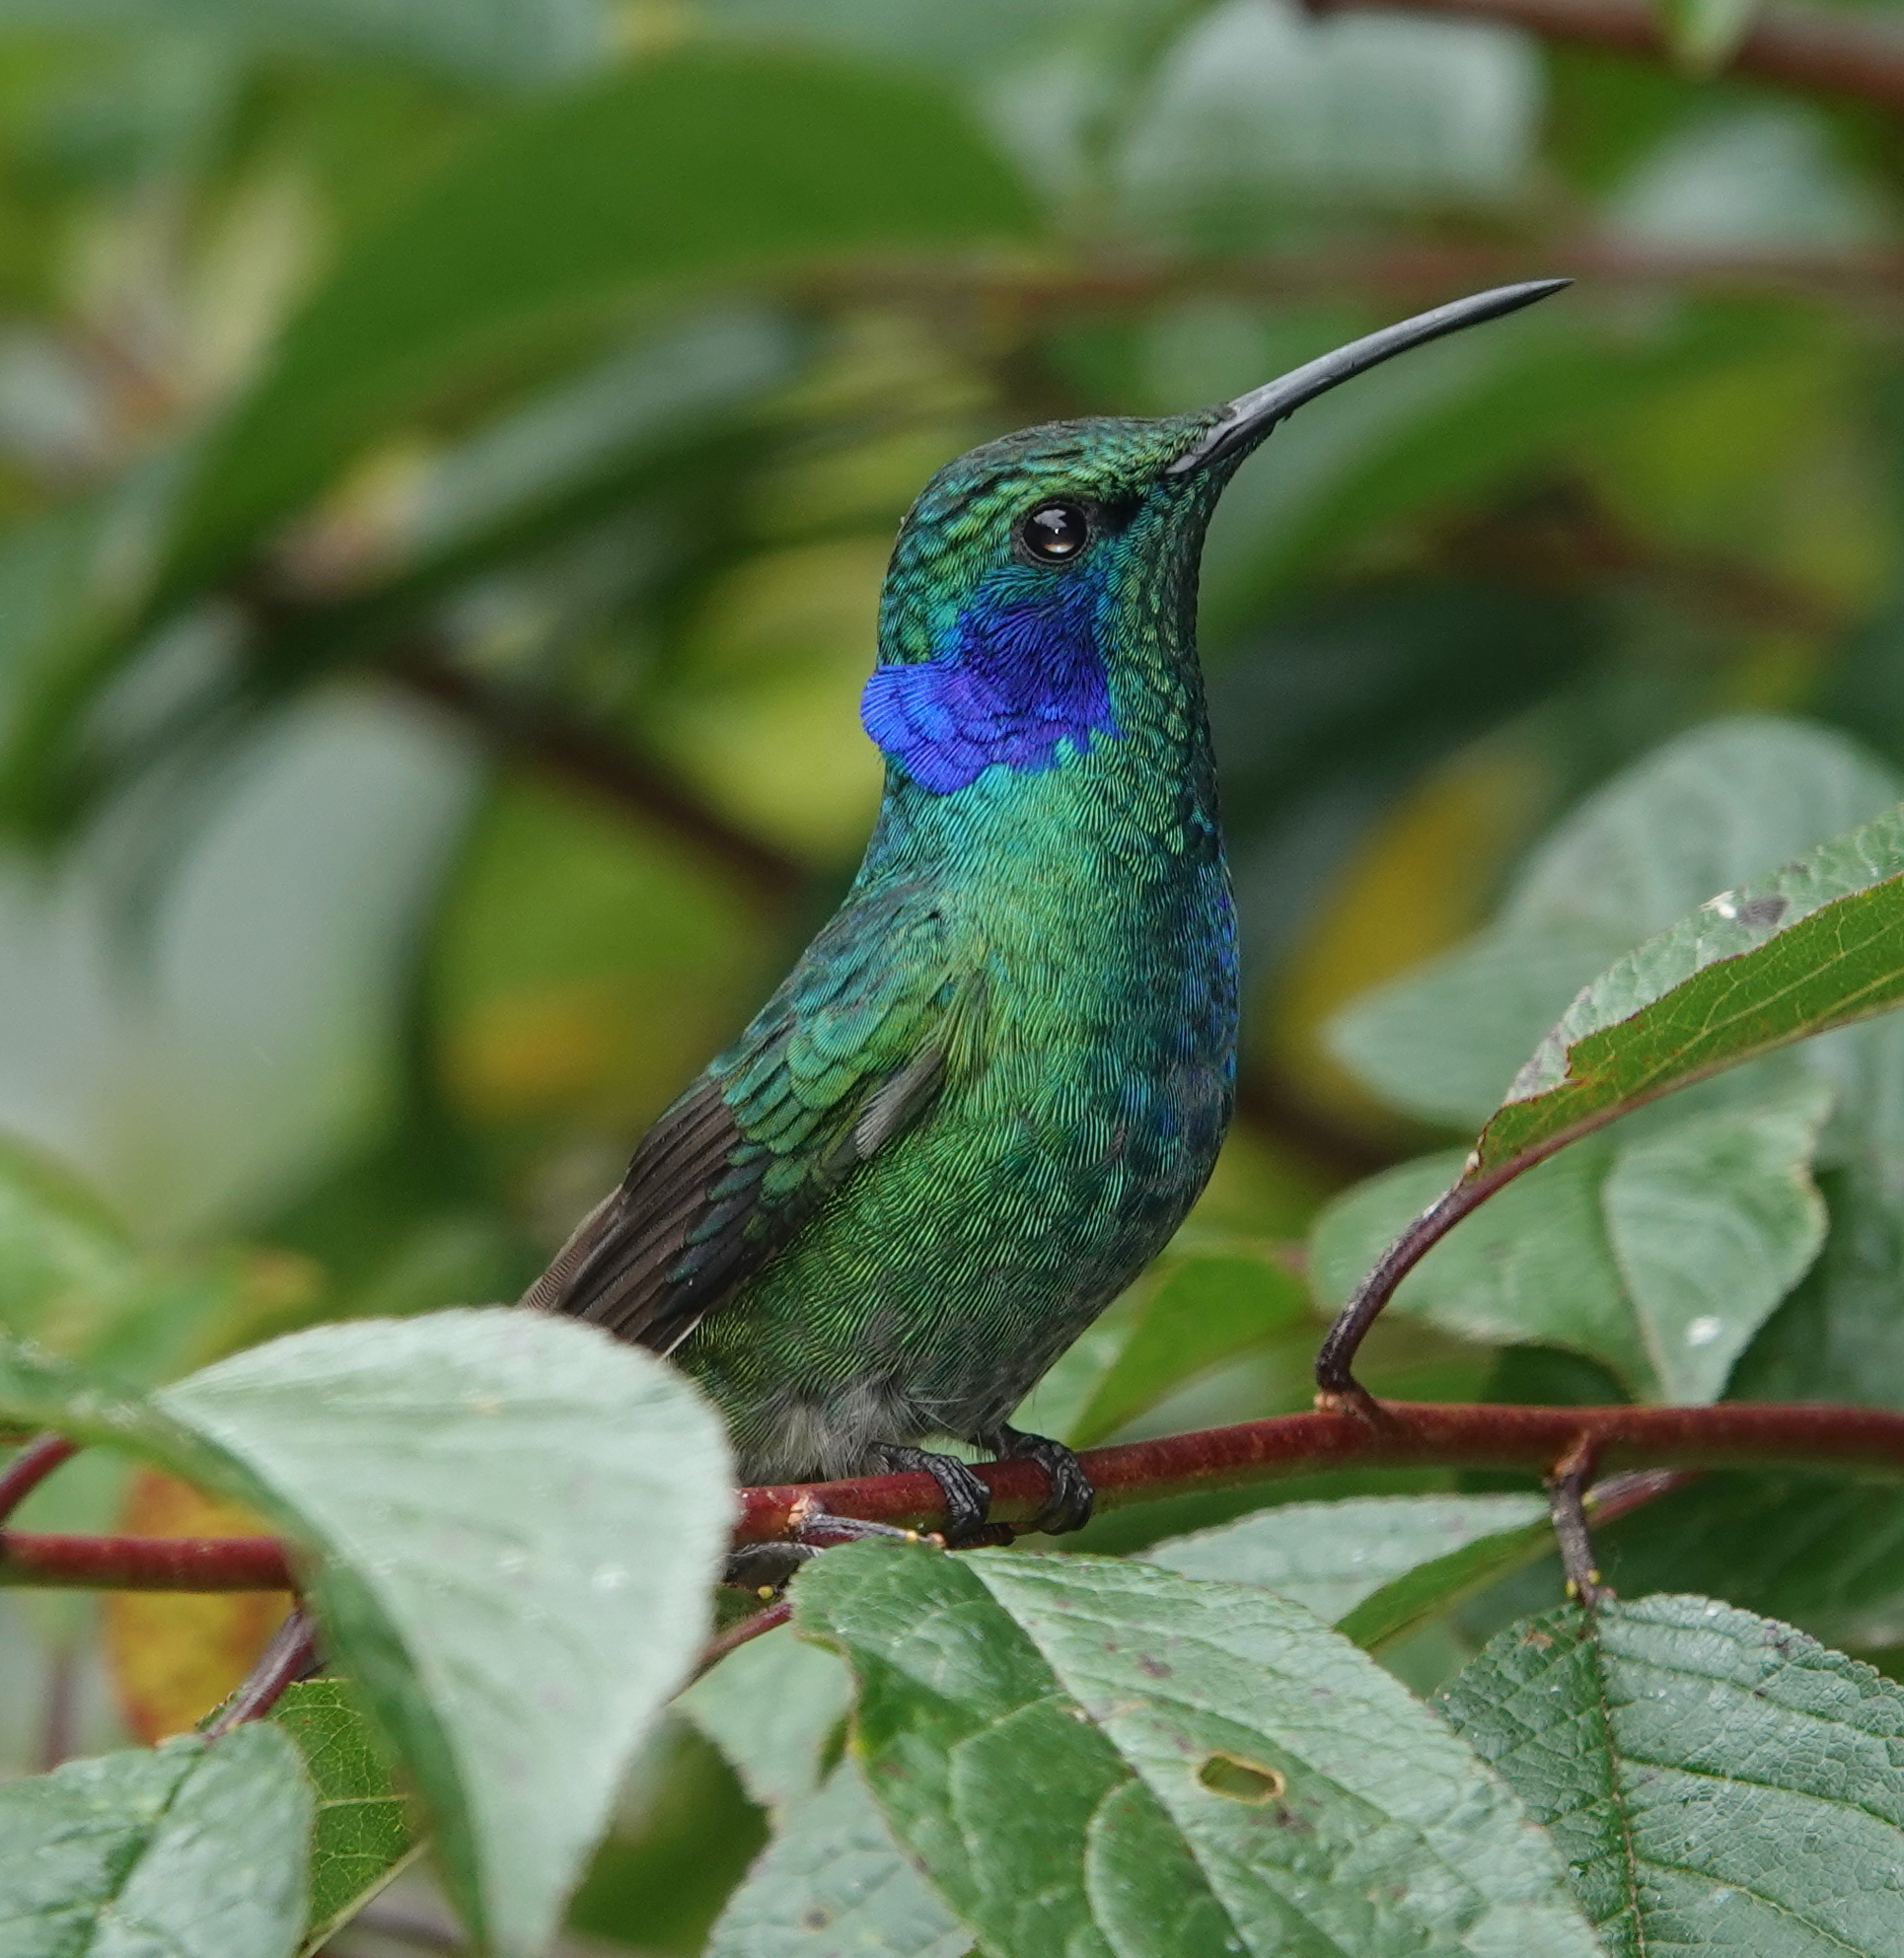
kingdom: Animalia
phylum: Chordata
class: Aves
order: Apodiformes
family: Trochilidae
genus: Colibri
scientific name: Colibri cyanotus
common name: Lesser violetear
